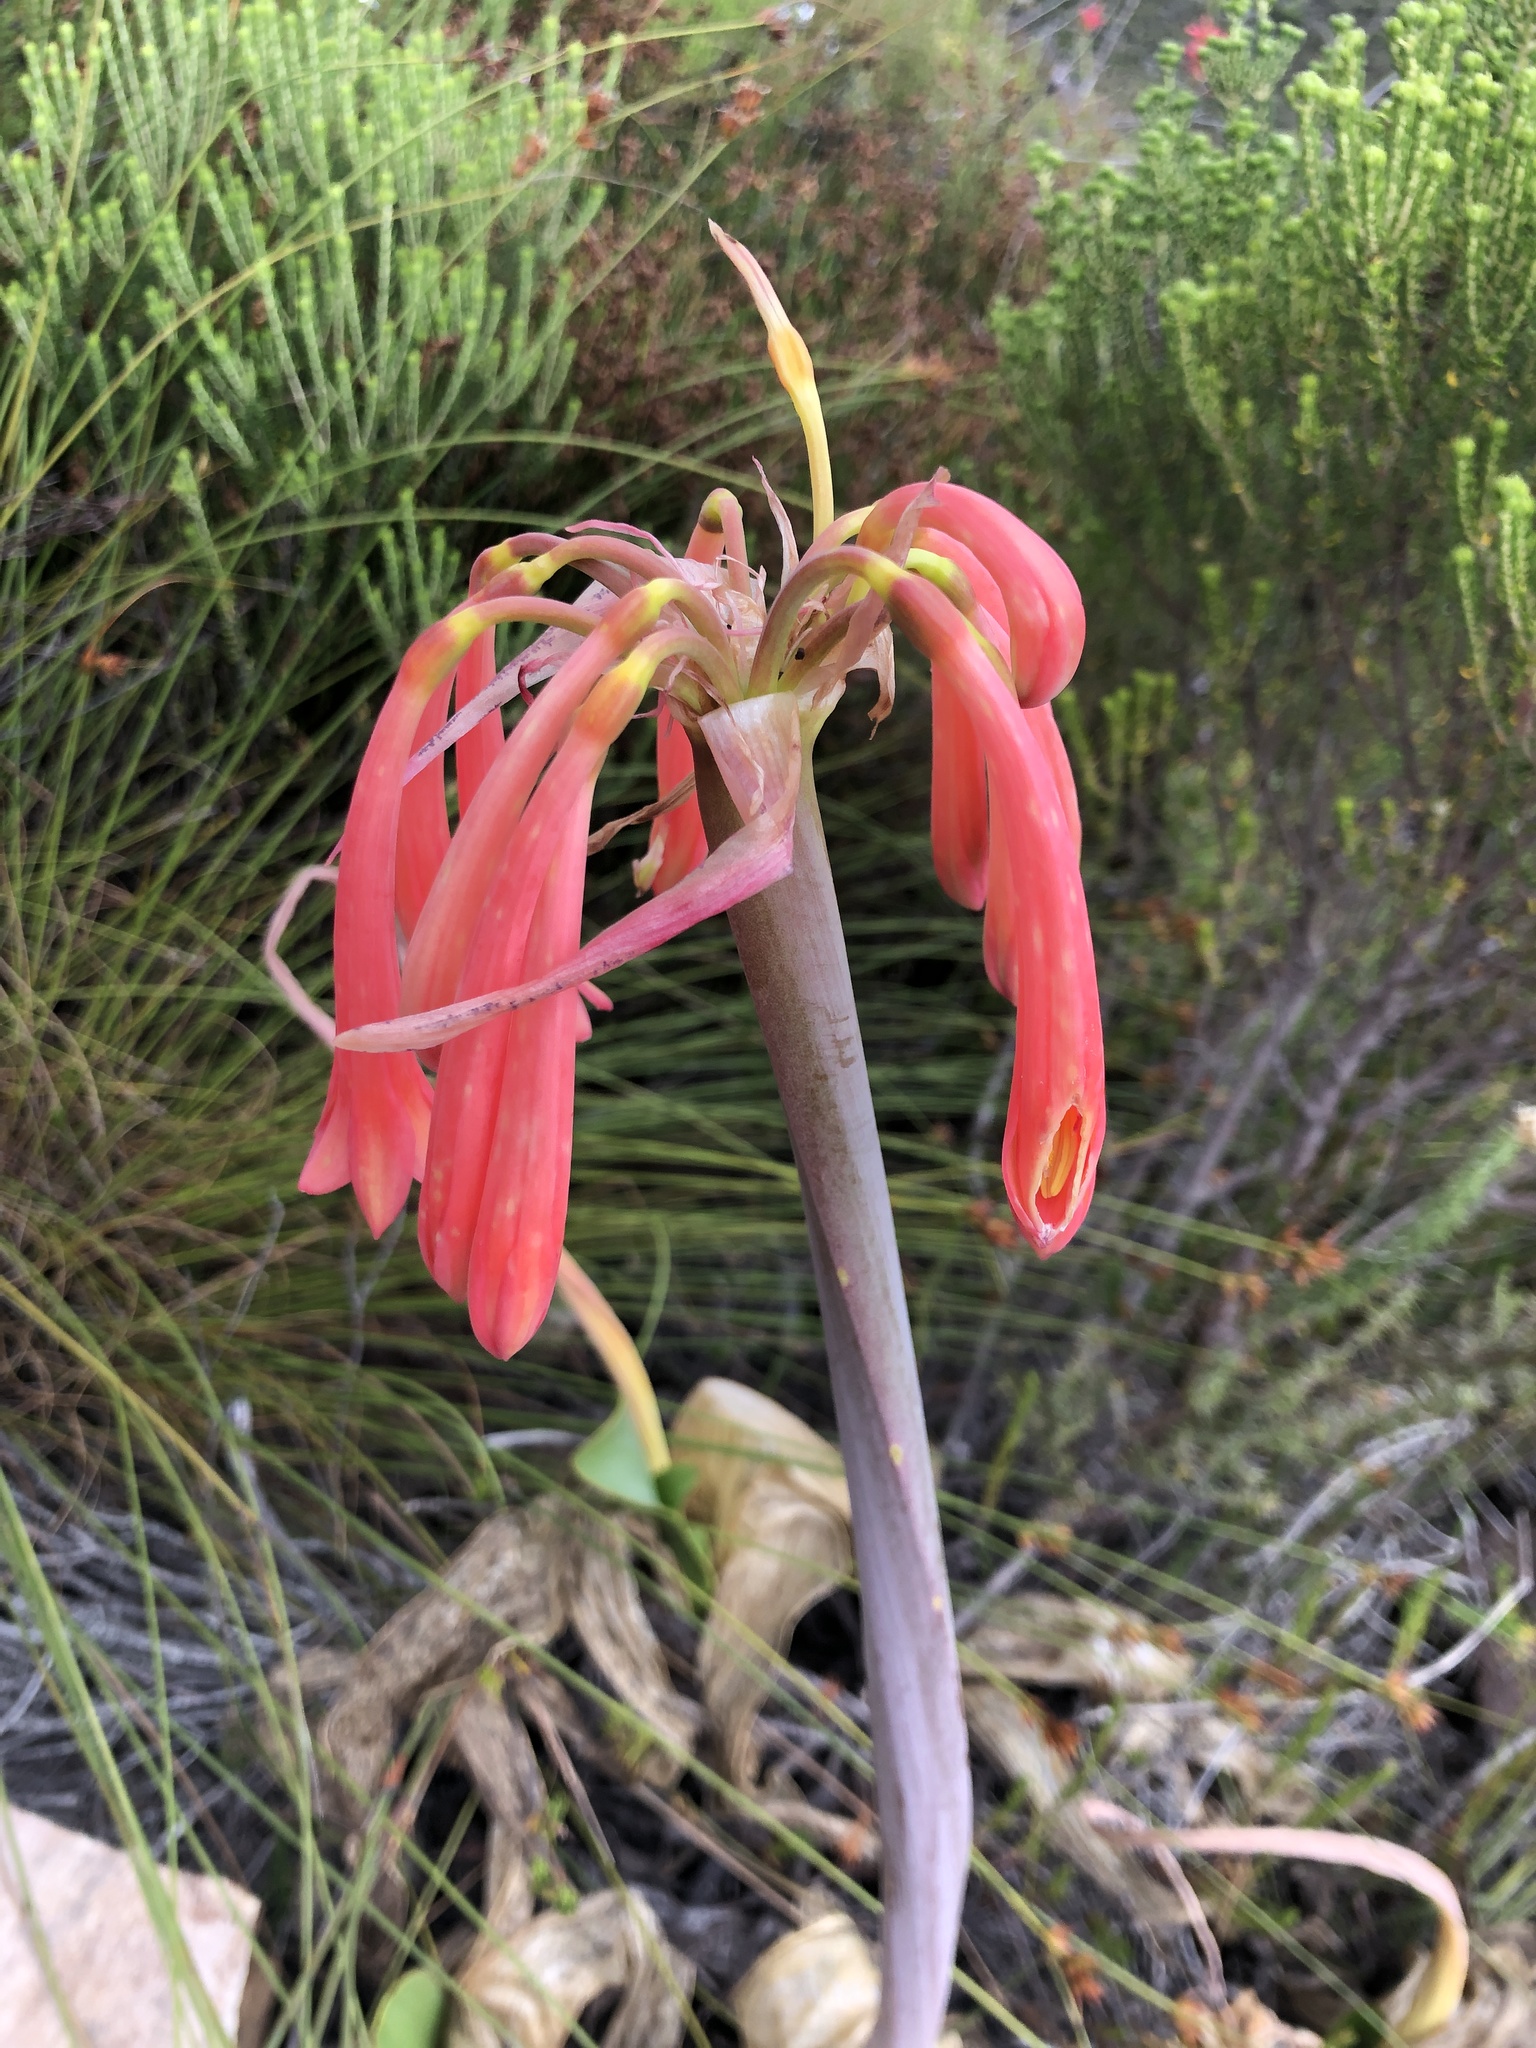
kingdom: Plantae
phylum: Tracheophyta
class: Liliopsida
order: Asparagales
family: Amaryllidaceae
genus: Cyrtanthus
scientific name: Cyrtanthus carneus
